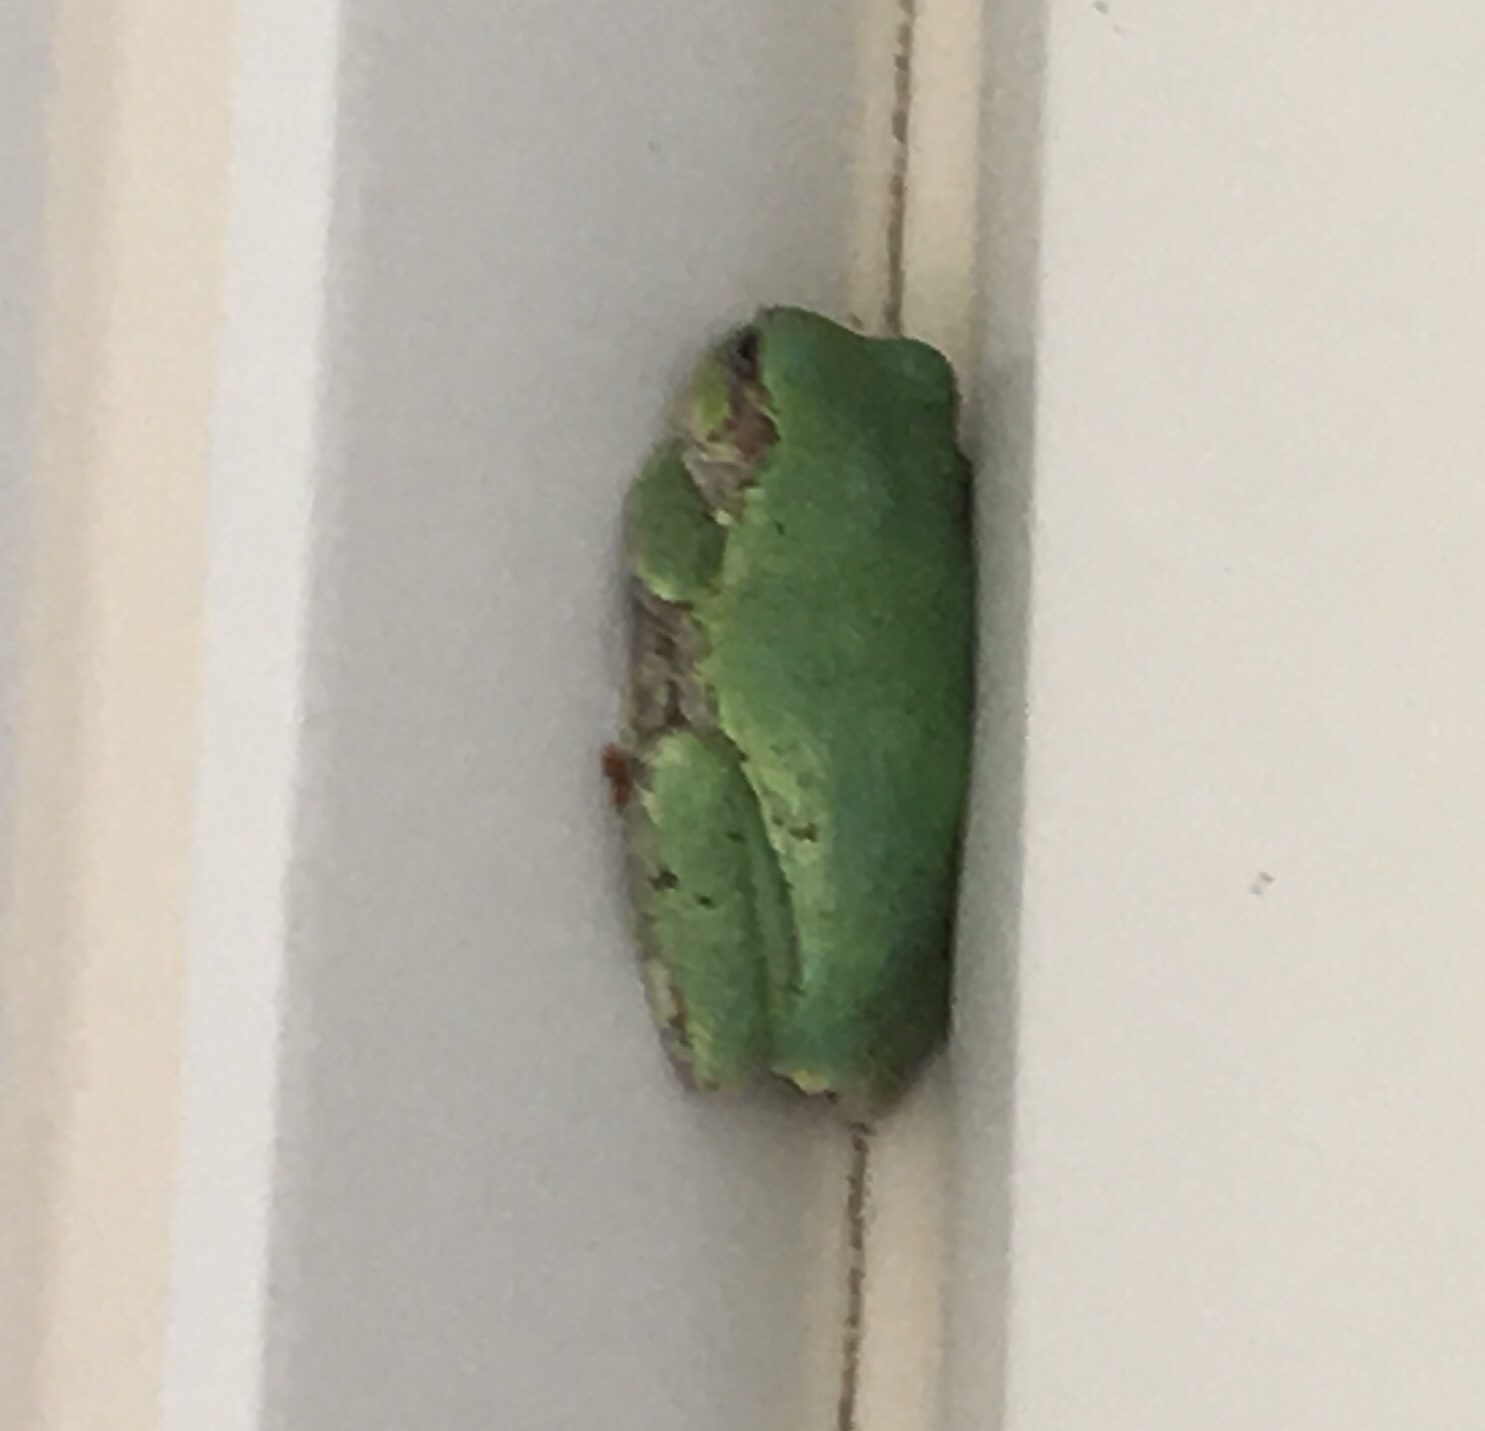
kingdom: Animalia
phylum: Chordata
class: Amphibia
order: Anura
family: Hylidae
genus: Hyla
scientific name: Hyla
